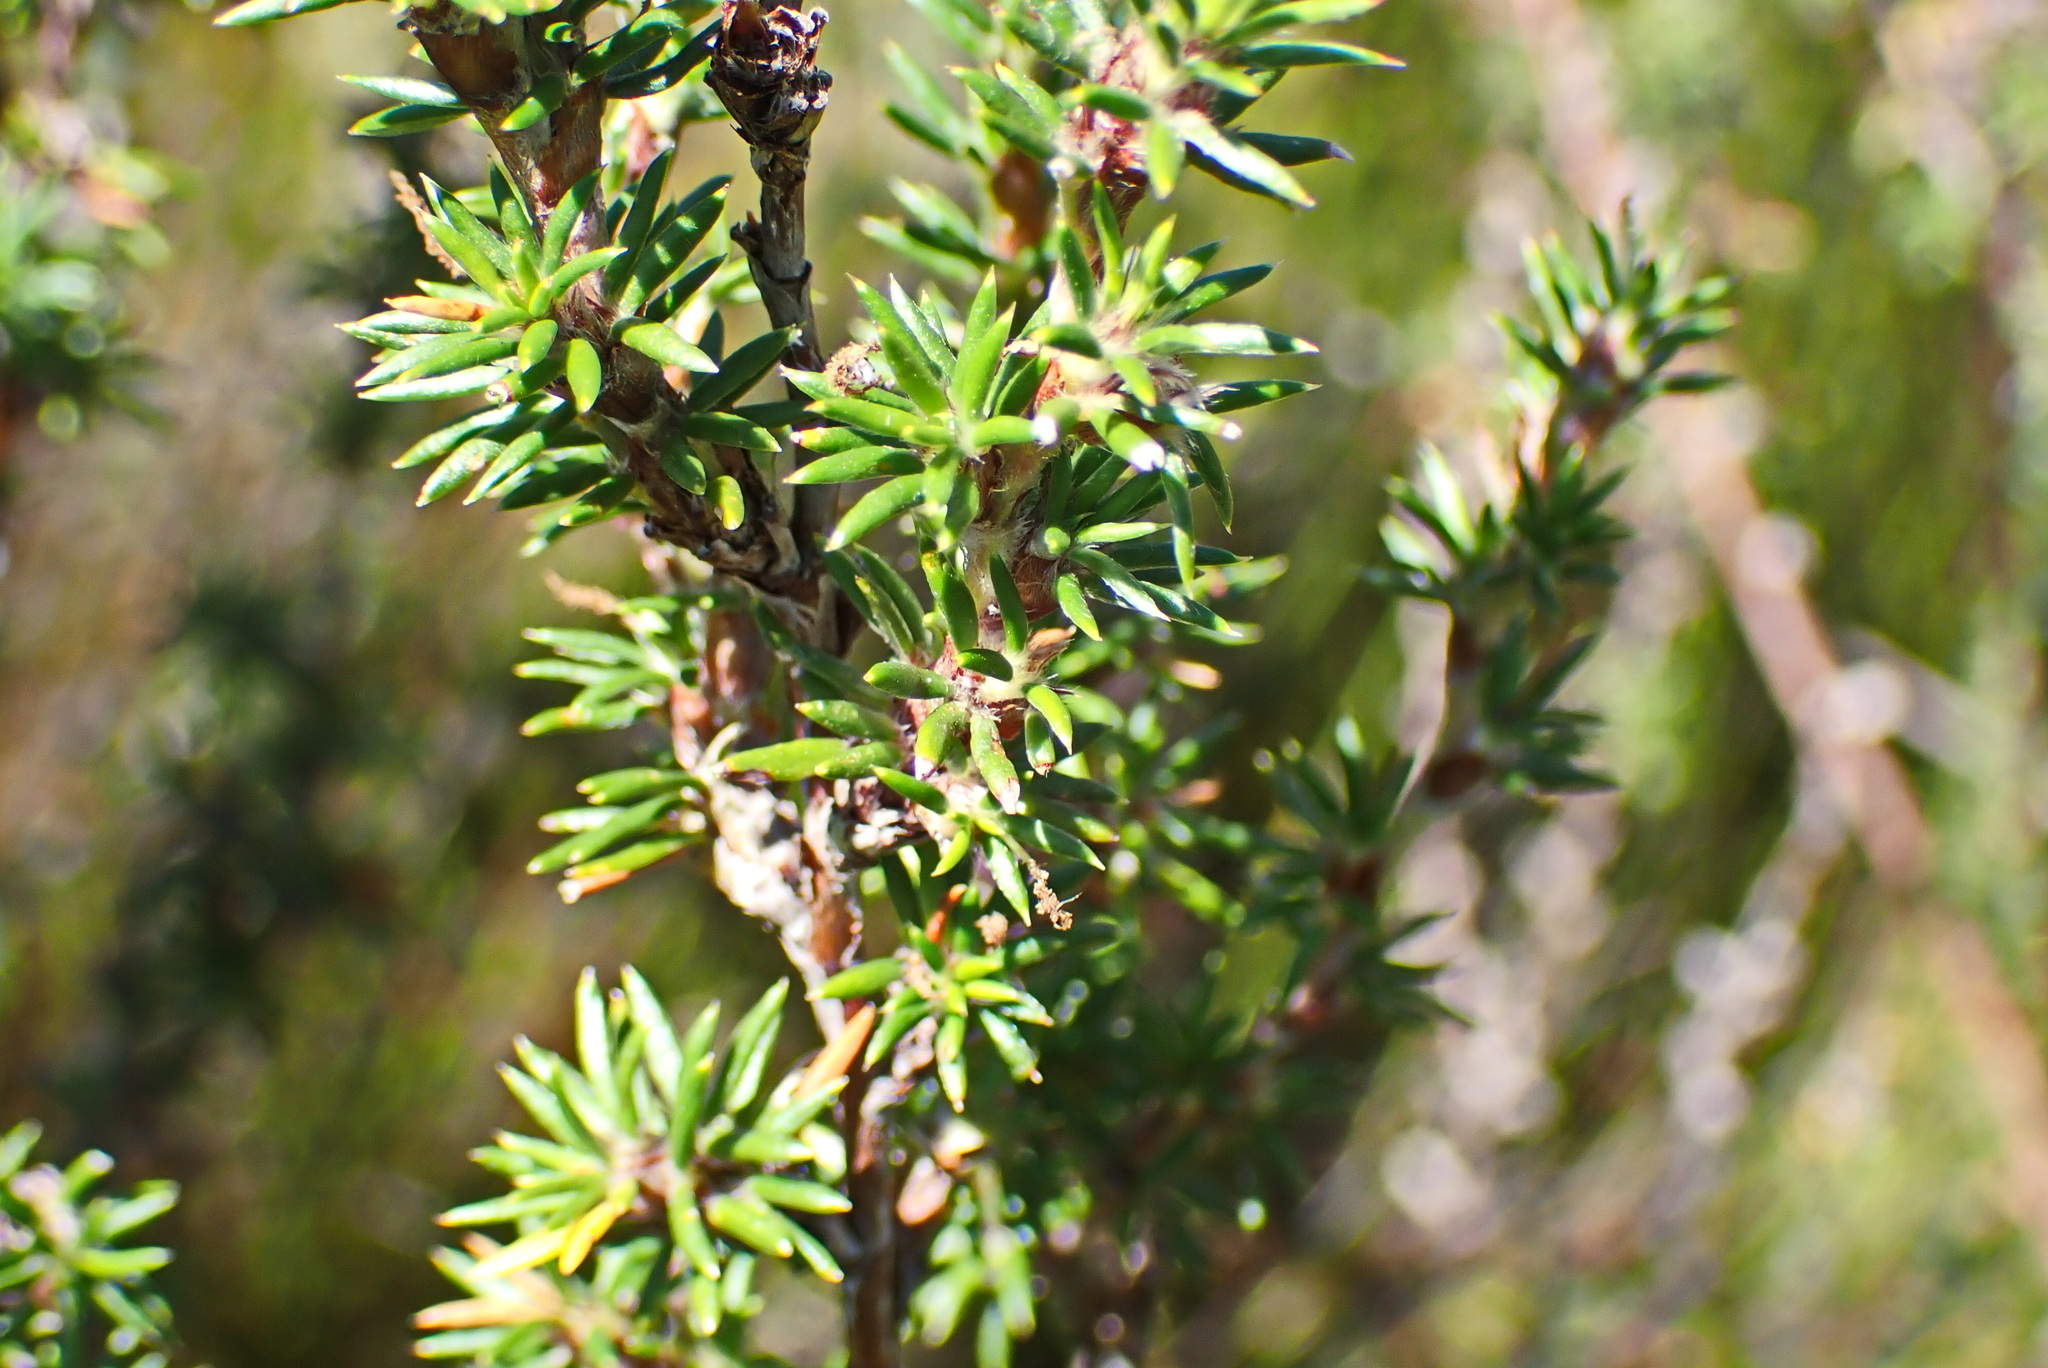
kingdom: Plantae
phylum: Tracheophyta
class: Magnoliopsida
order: Rosales
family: Rosaceae
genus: Cliffortia
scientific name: Cliffortia stricta
